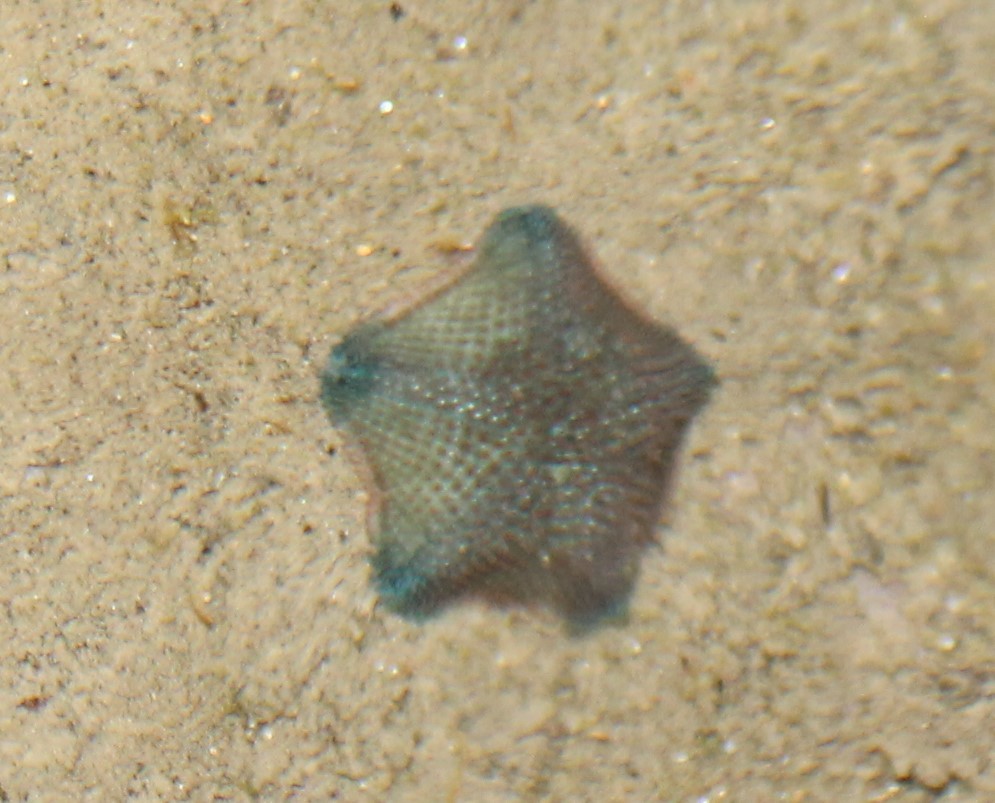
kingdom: Animalia
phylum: Echinodermata
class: Asteroidea
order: Valvatida
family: Asterinidae
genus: Patiriella
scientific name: Patiriella regularis
